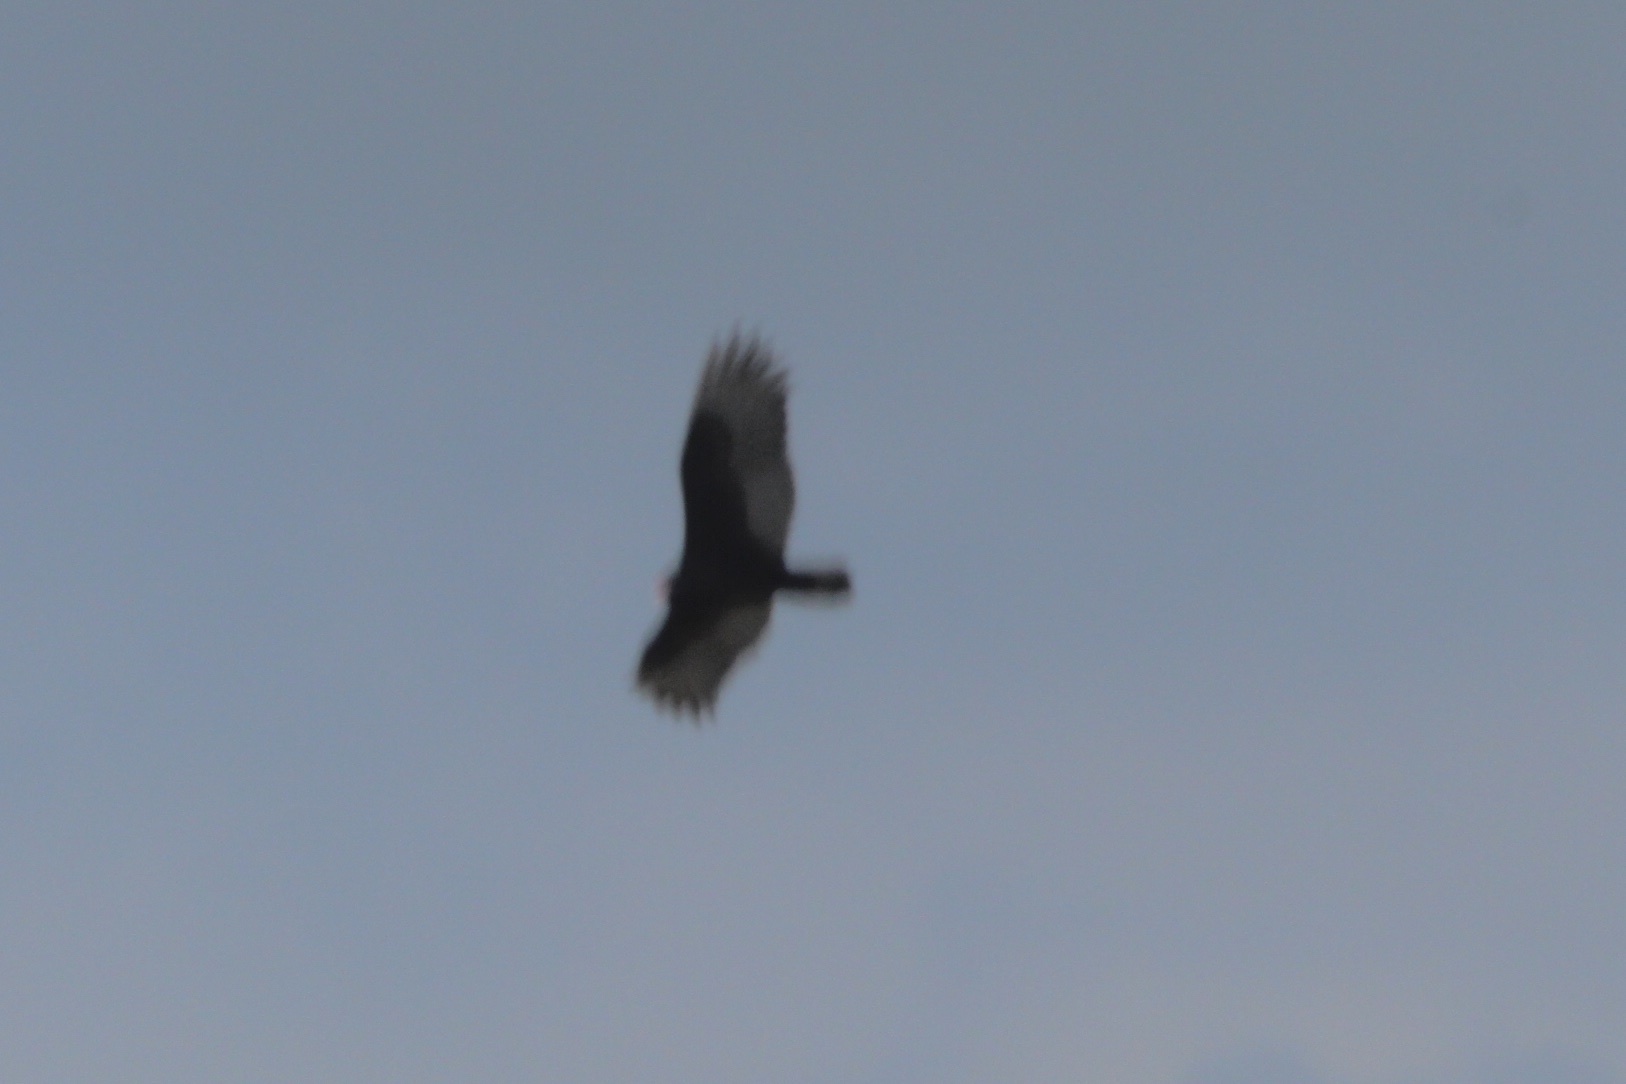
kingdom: Animalia
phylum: Chordata
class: Aves
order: Accipitriformes
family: Cathartidae
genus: Cathartes
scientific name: Cathartes aura
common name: Turkey vulture
